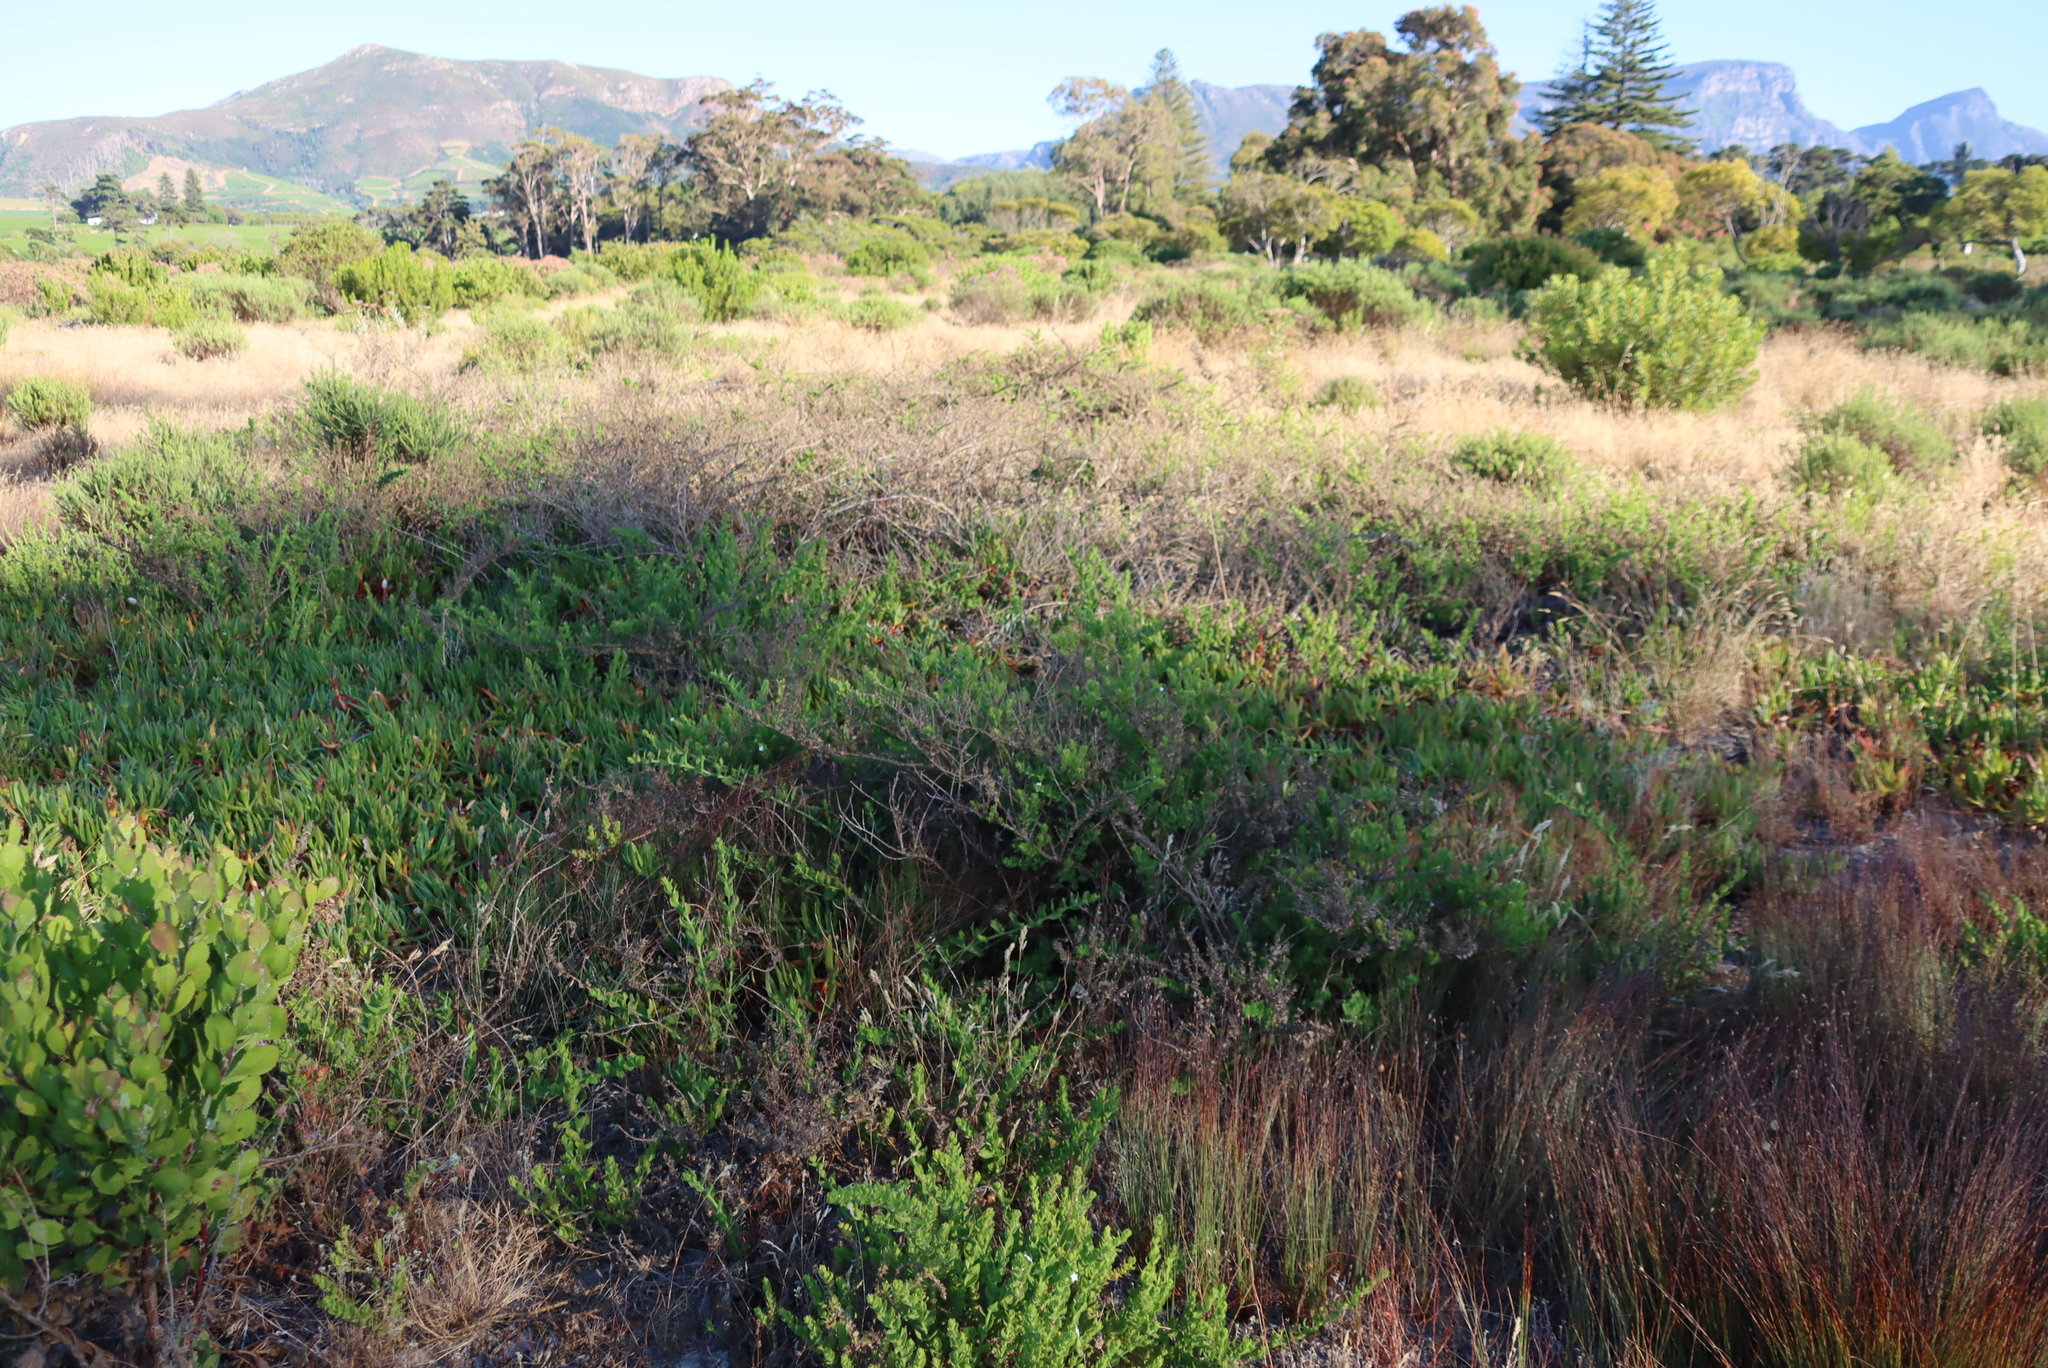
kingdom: Plantae
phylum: Tracheophyta
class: Magnoliopsida
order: Lamiales
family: Scrophulariaceae
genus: Oftia
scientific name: Oftia africana
